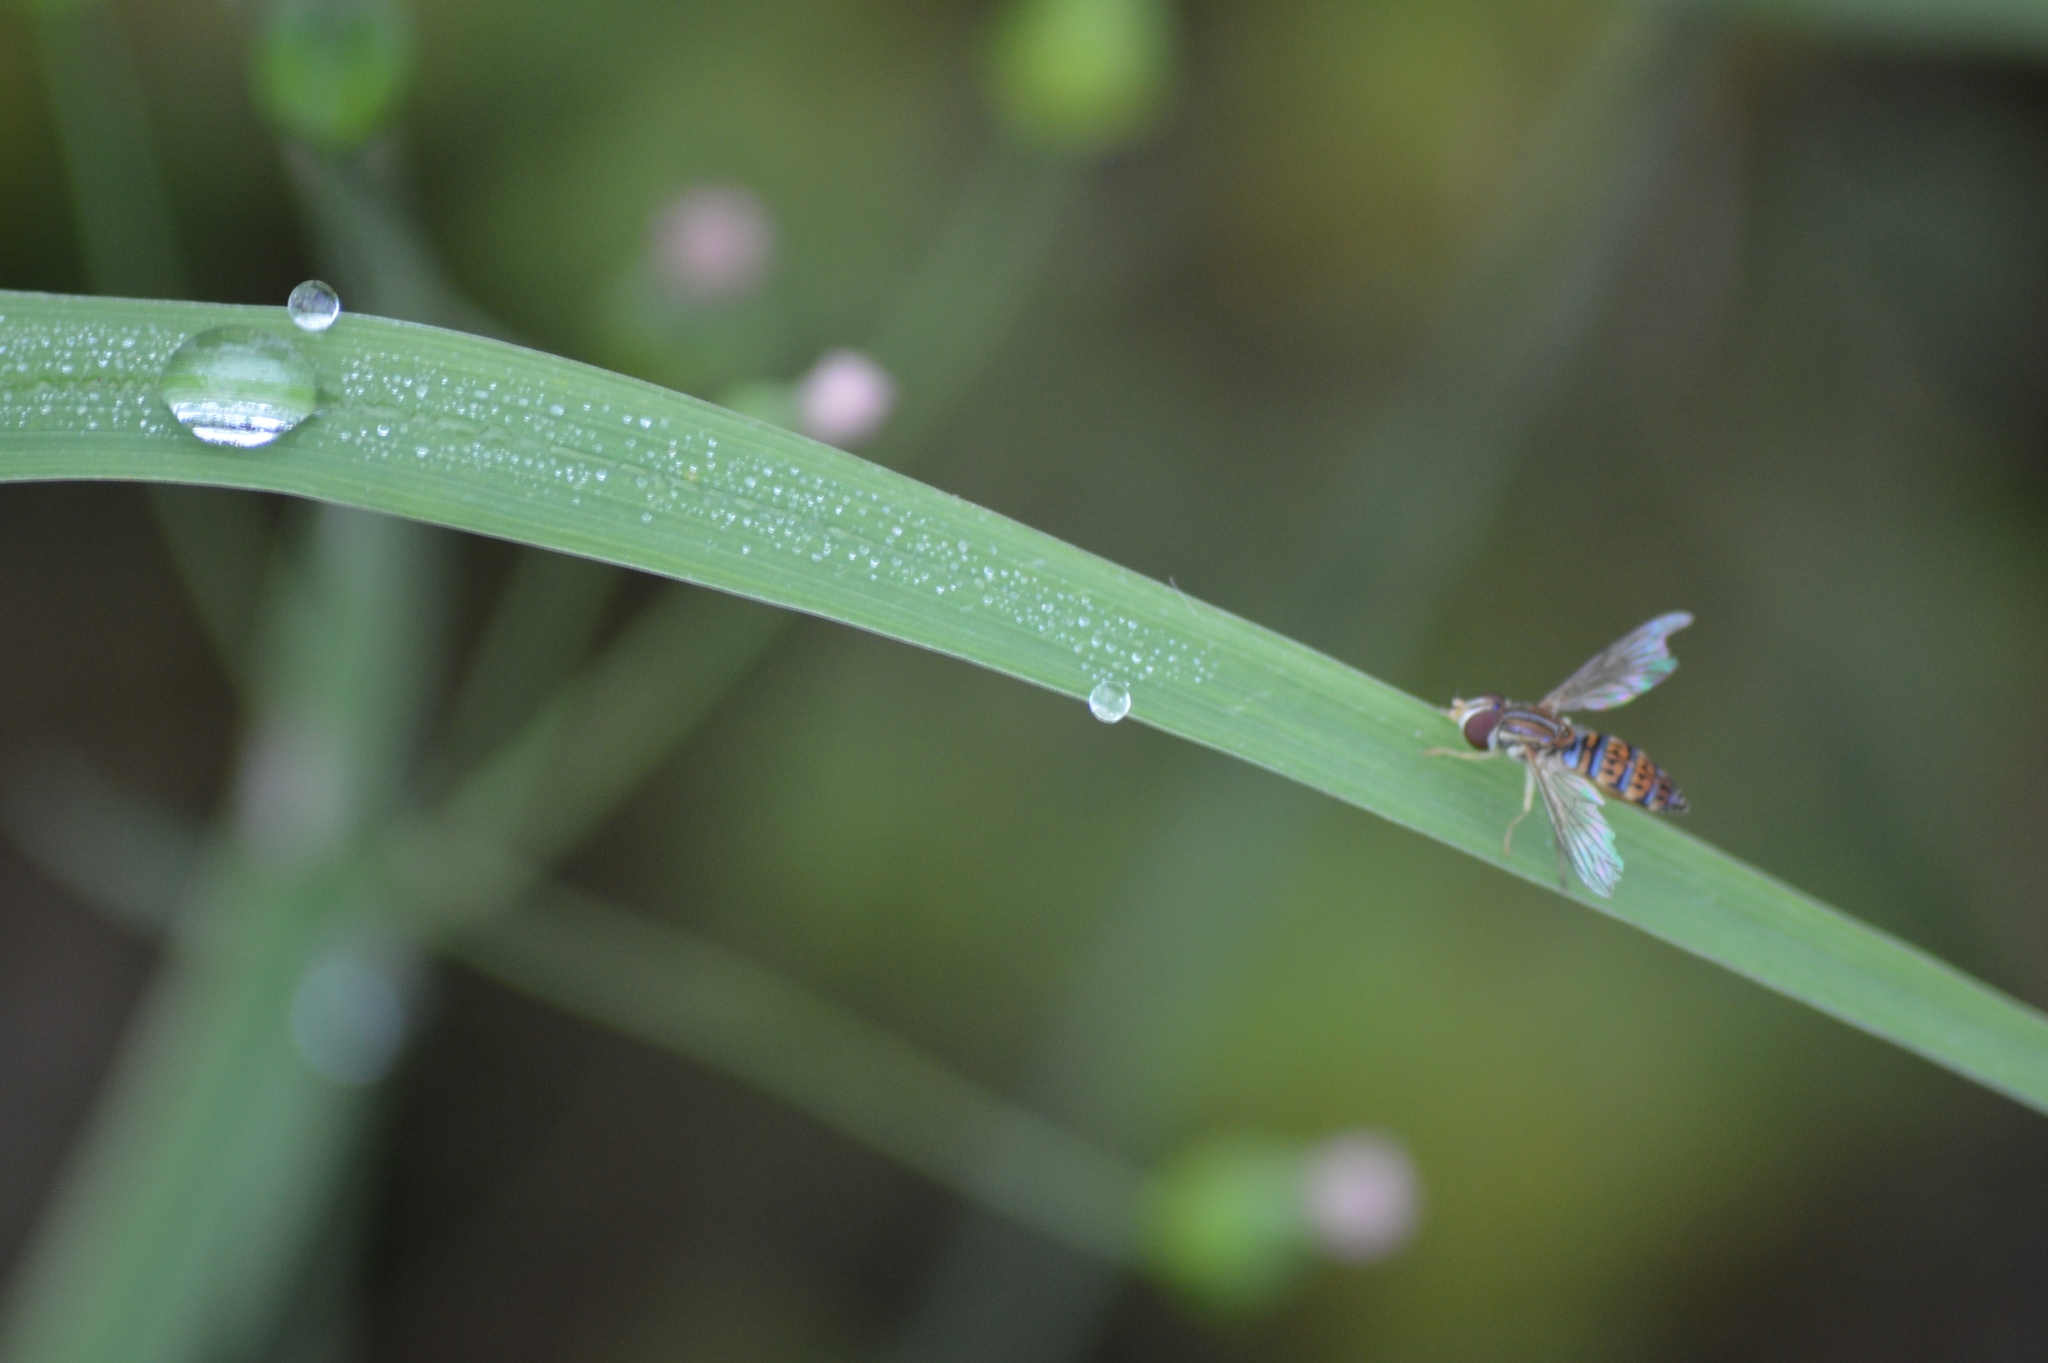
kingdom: Animalia
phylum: Arthropoda
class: Insecta
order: Diptera
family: Syrphidae
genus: Toxomerus
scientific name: Toxomerus
